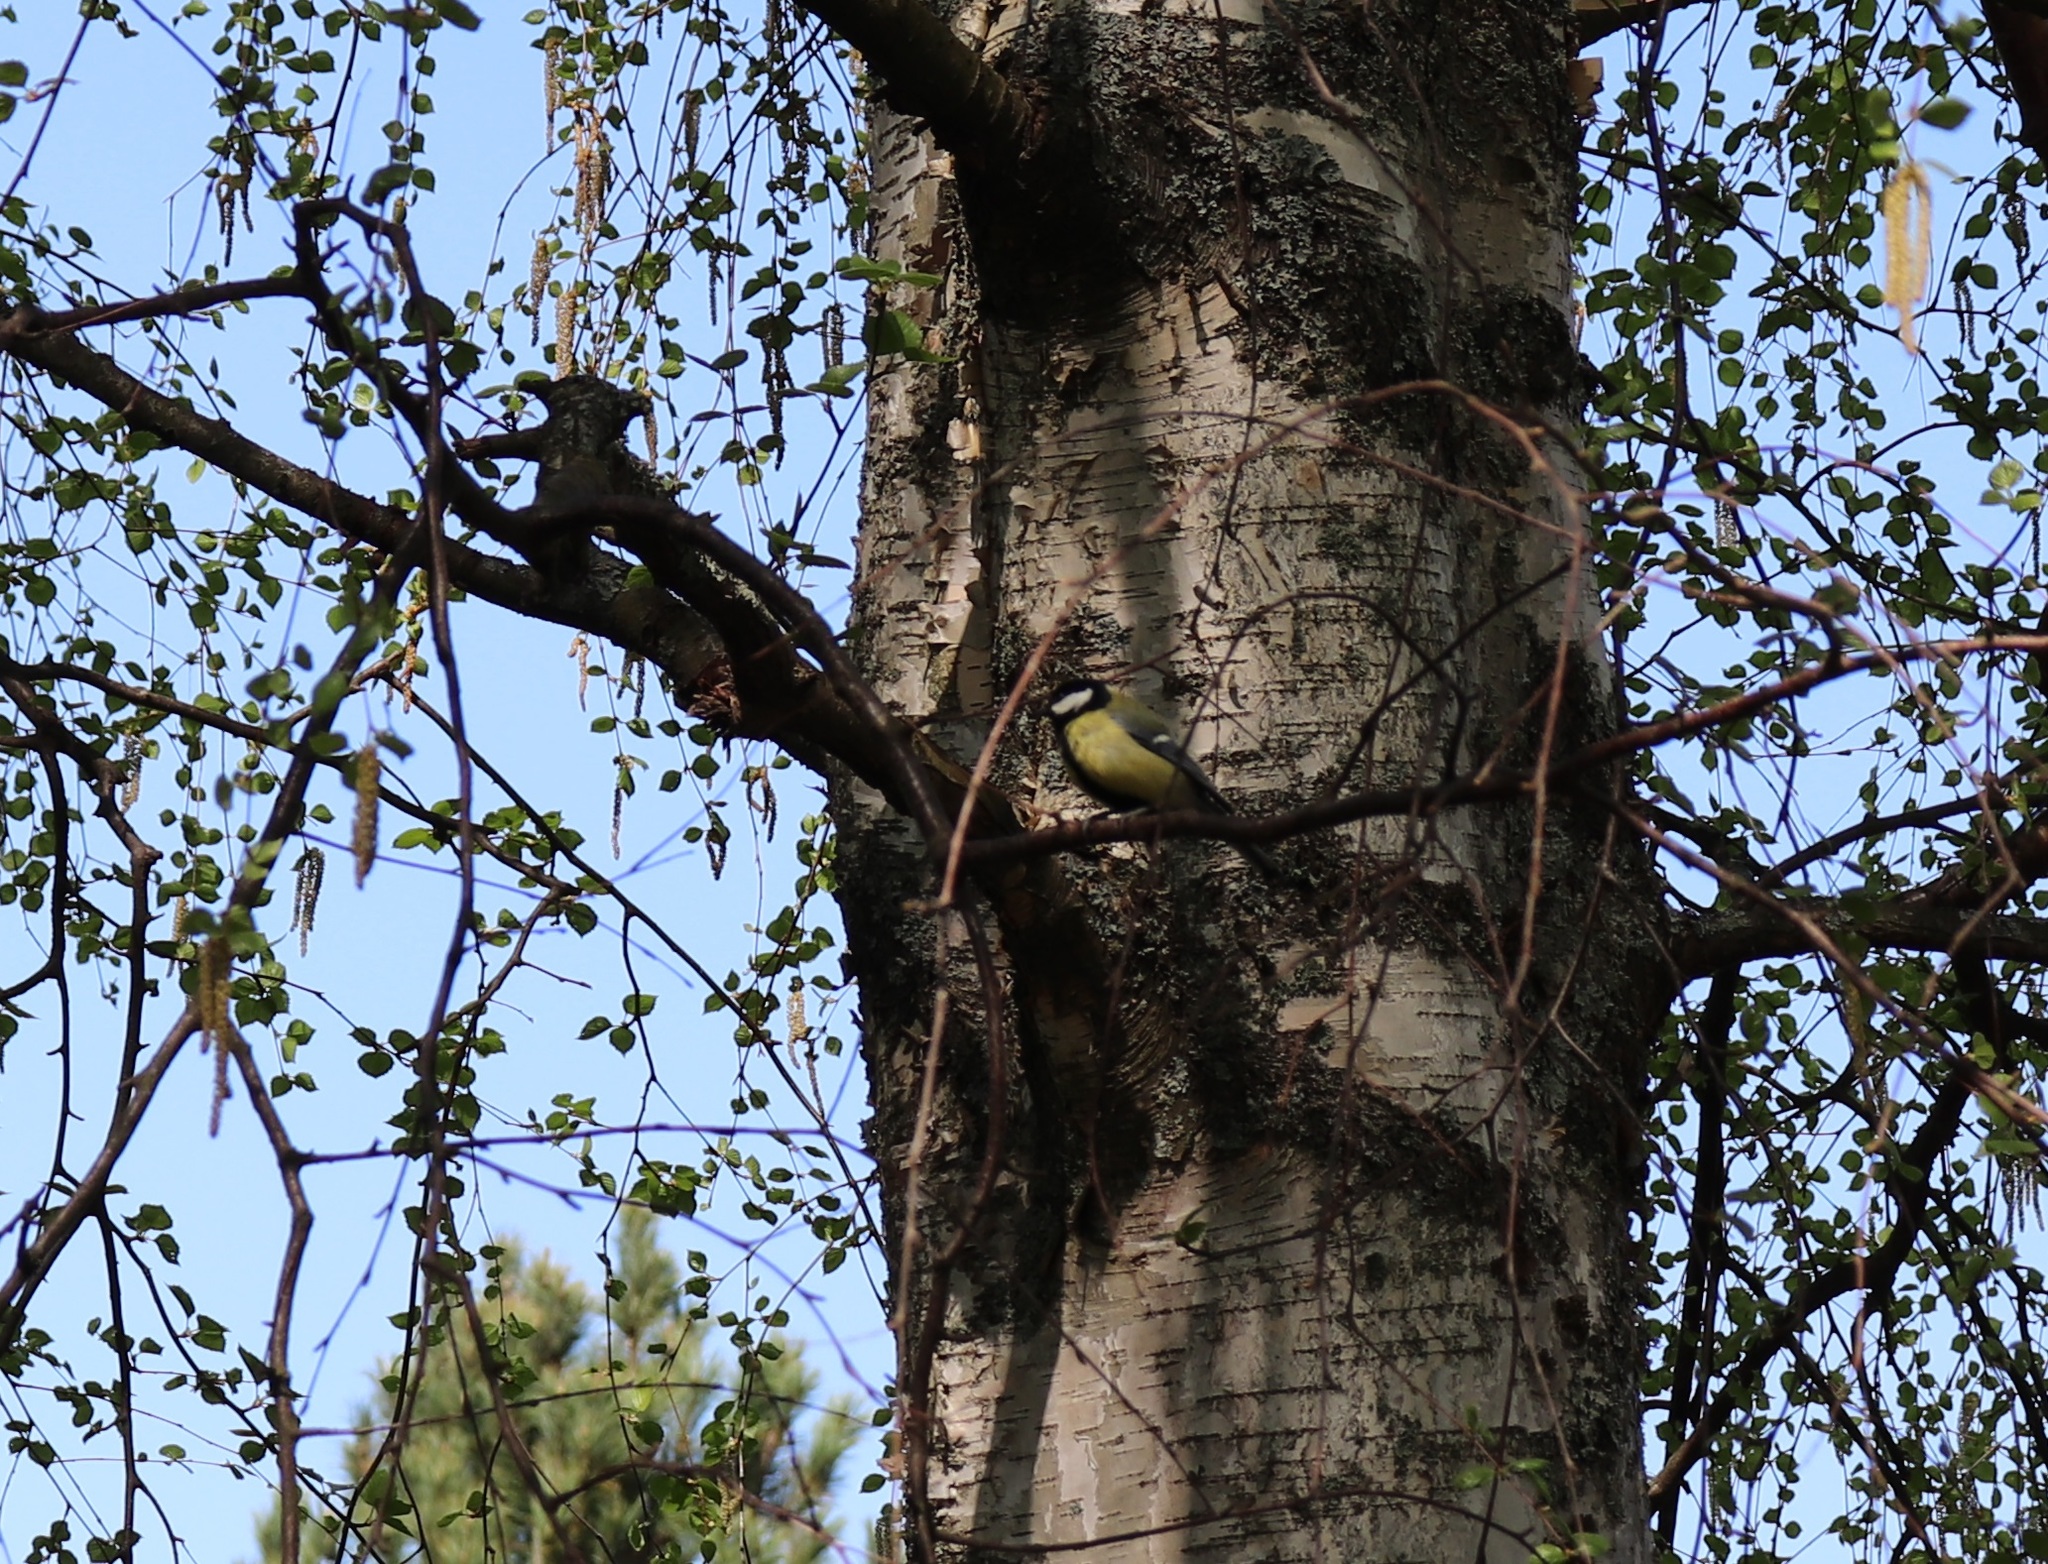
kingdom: Animalia
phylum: Chordata
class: Aves
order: Passeriformes
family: Paridae
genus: Parus
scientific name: Parus major
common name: Great tit
